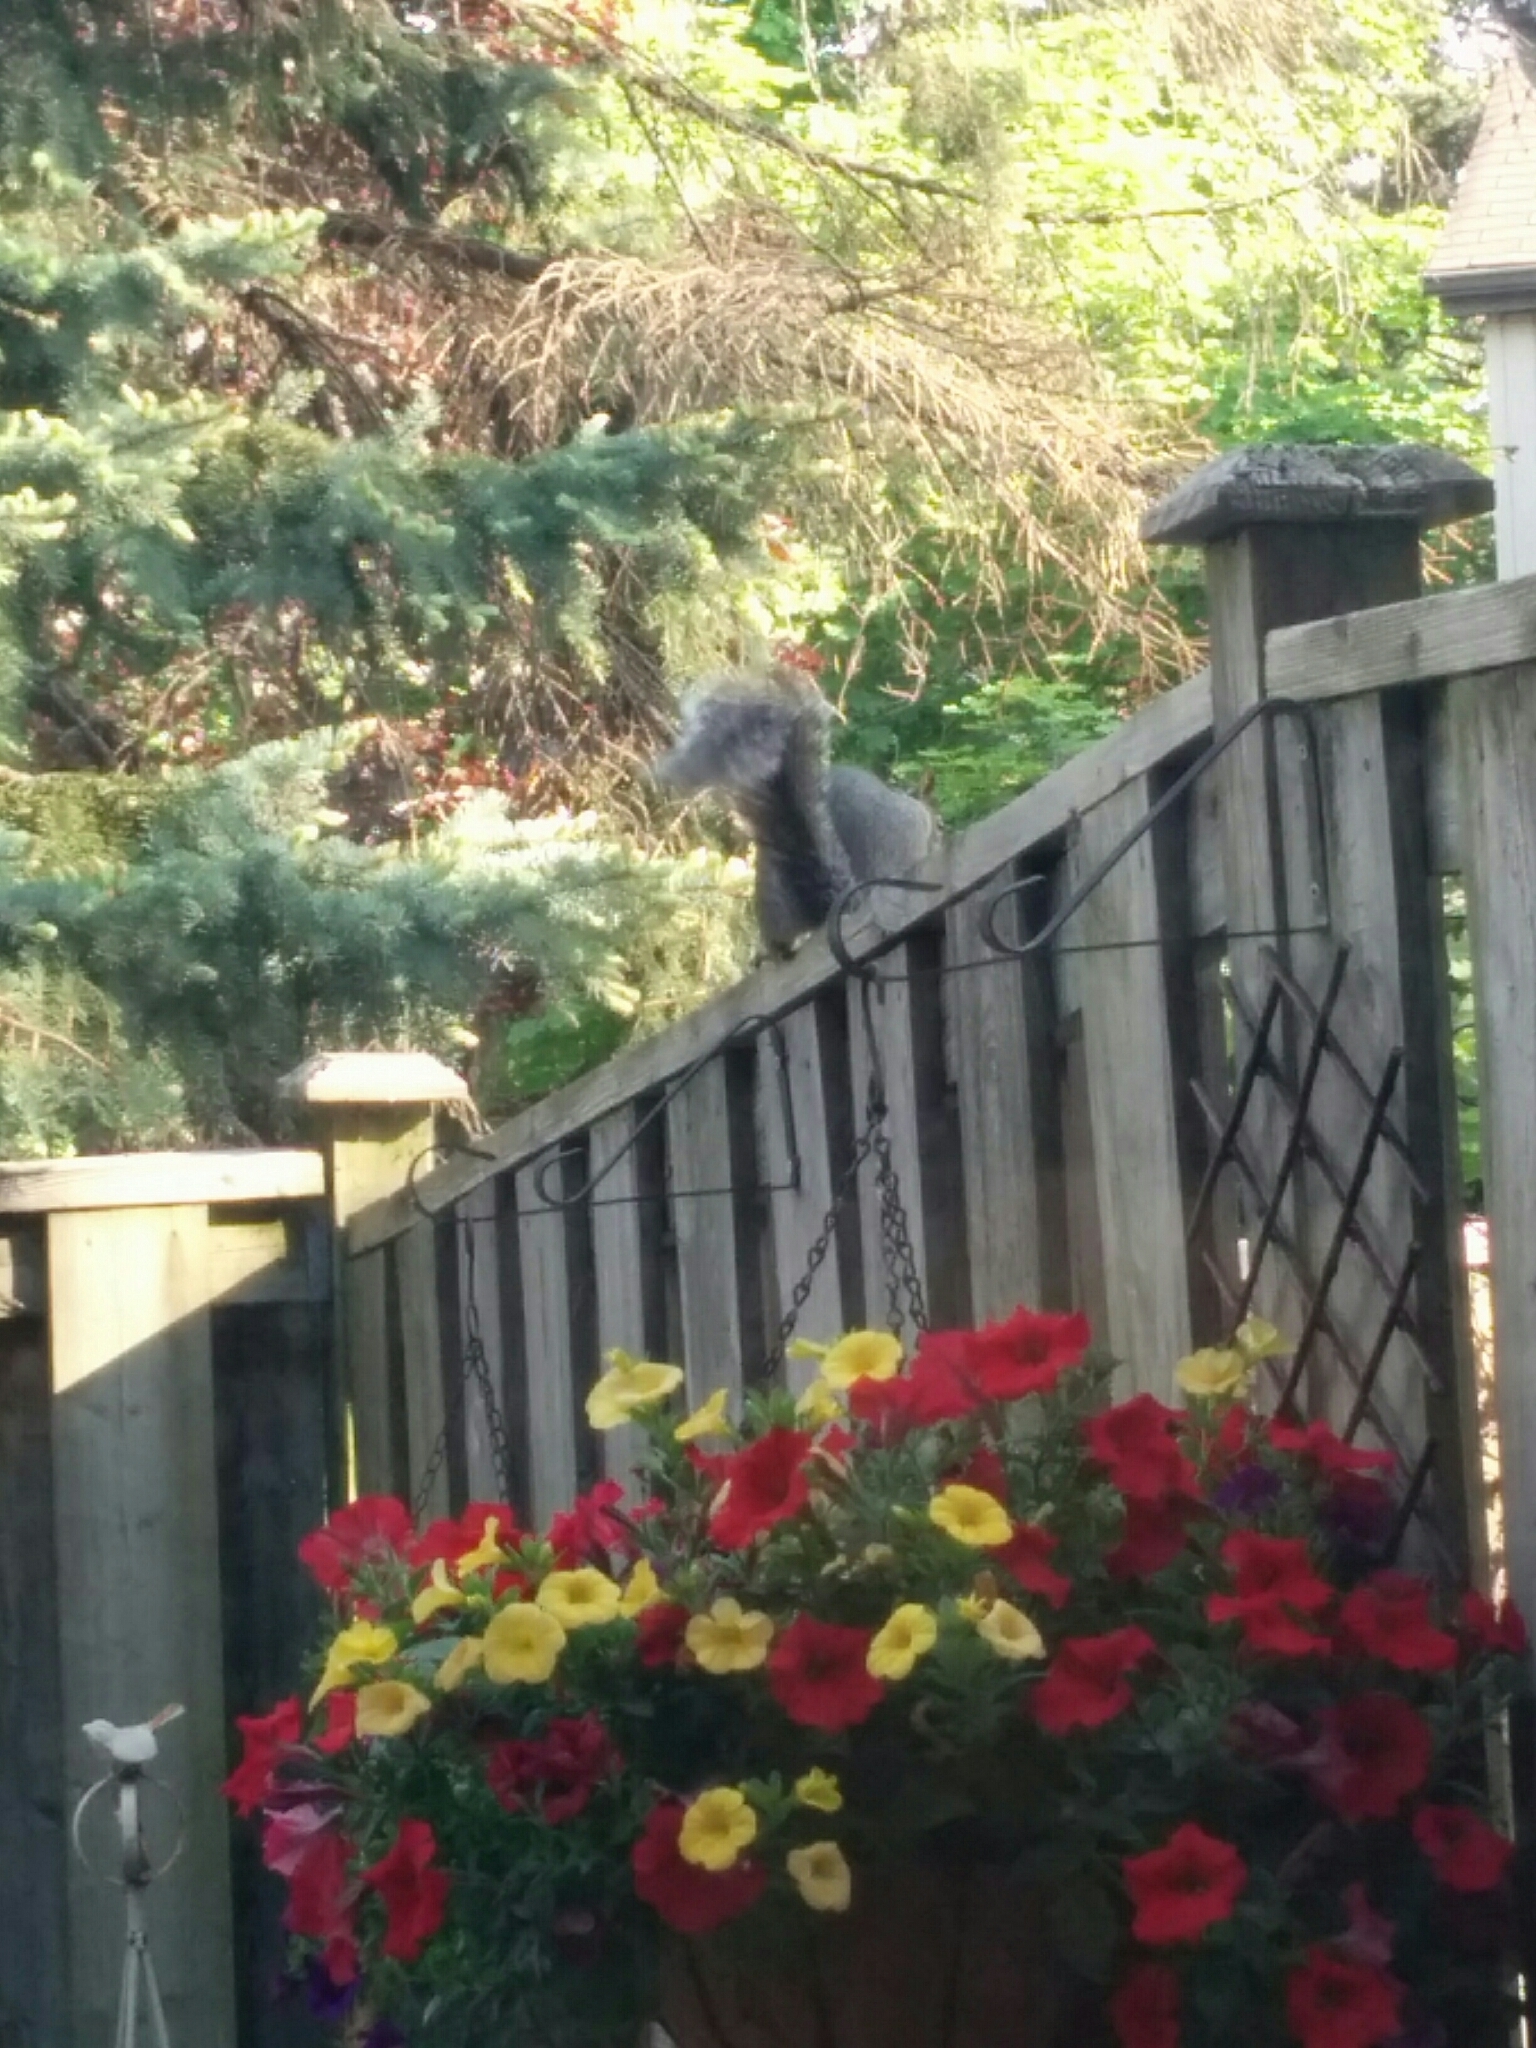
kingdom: Animalia
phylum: Chordata
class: Mammalia
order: Rodentia
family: Sciuridae
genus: Sciurus
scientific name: Sciurus carolinensis
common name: Eastern gray squirrel
